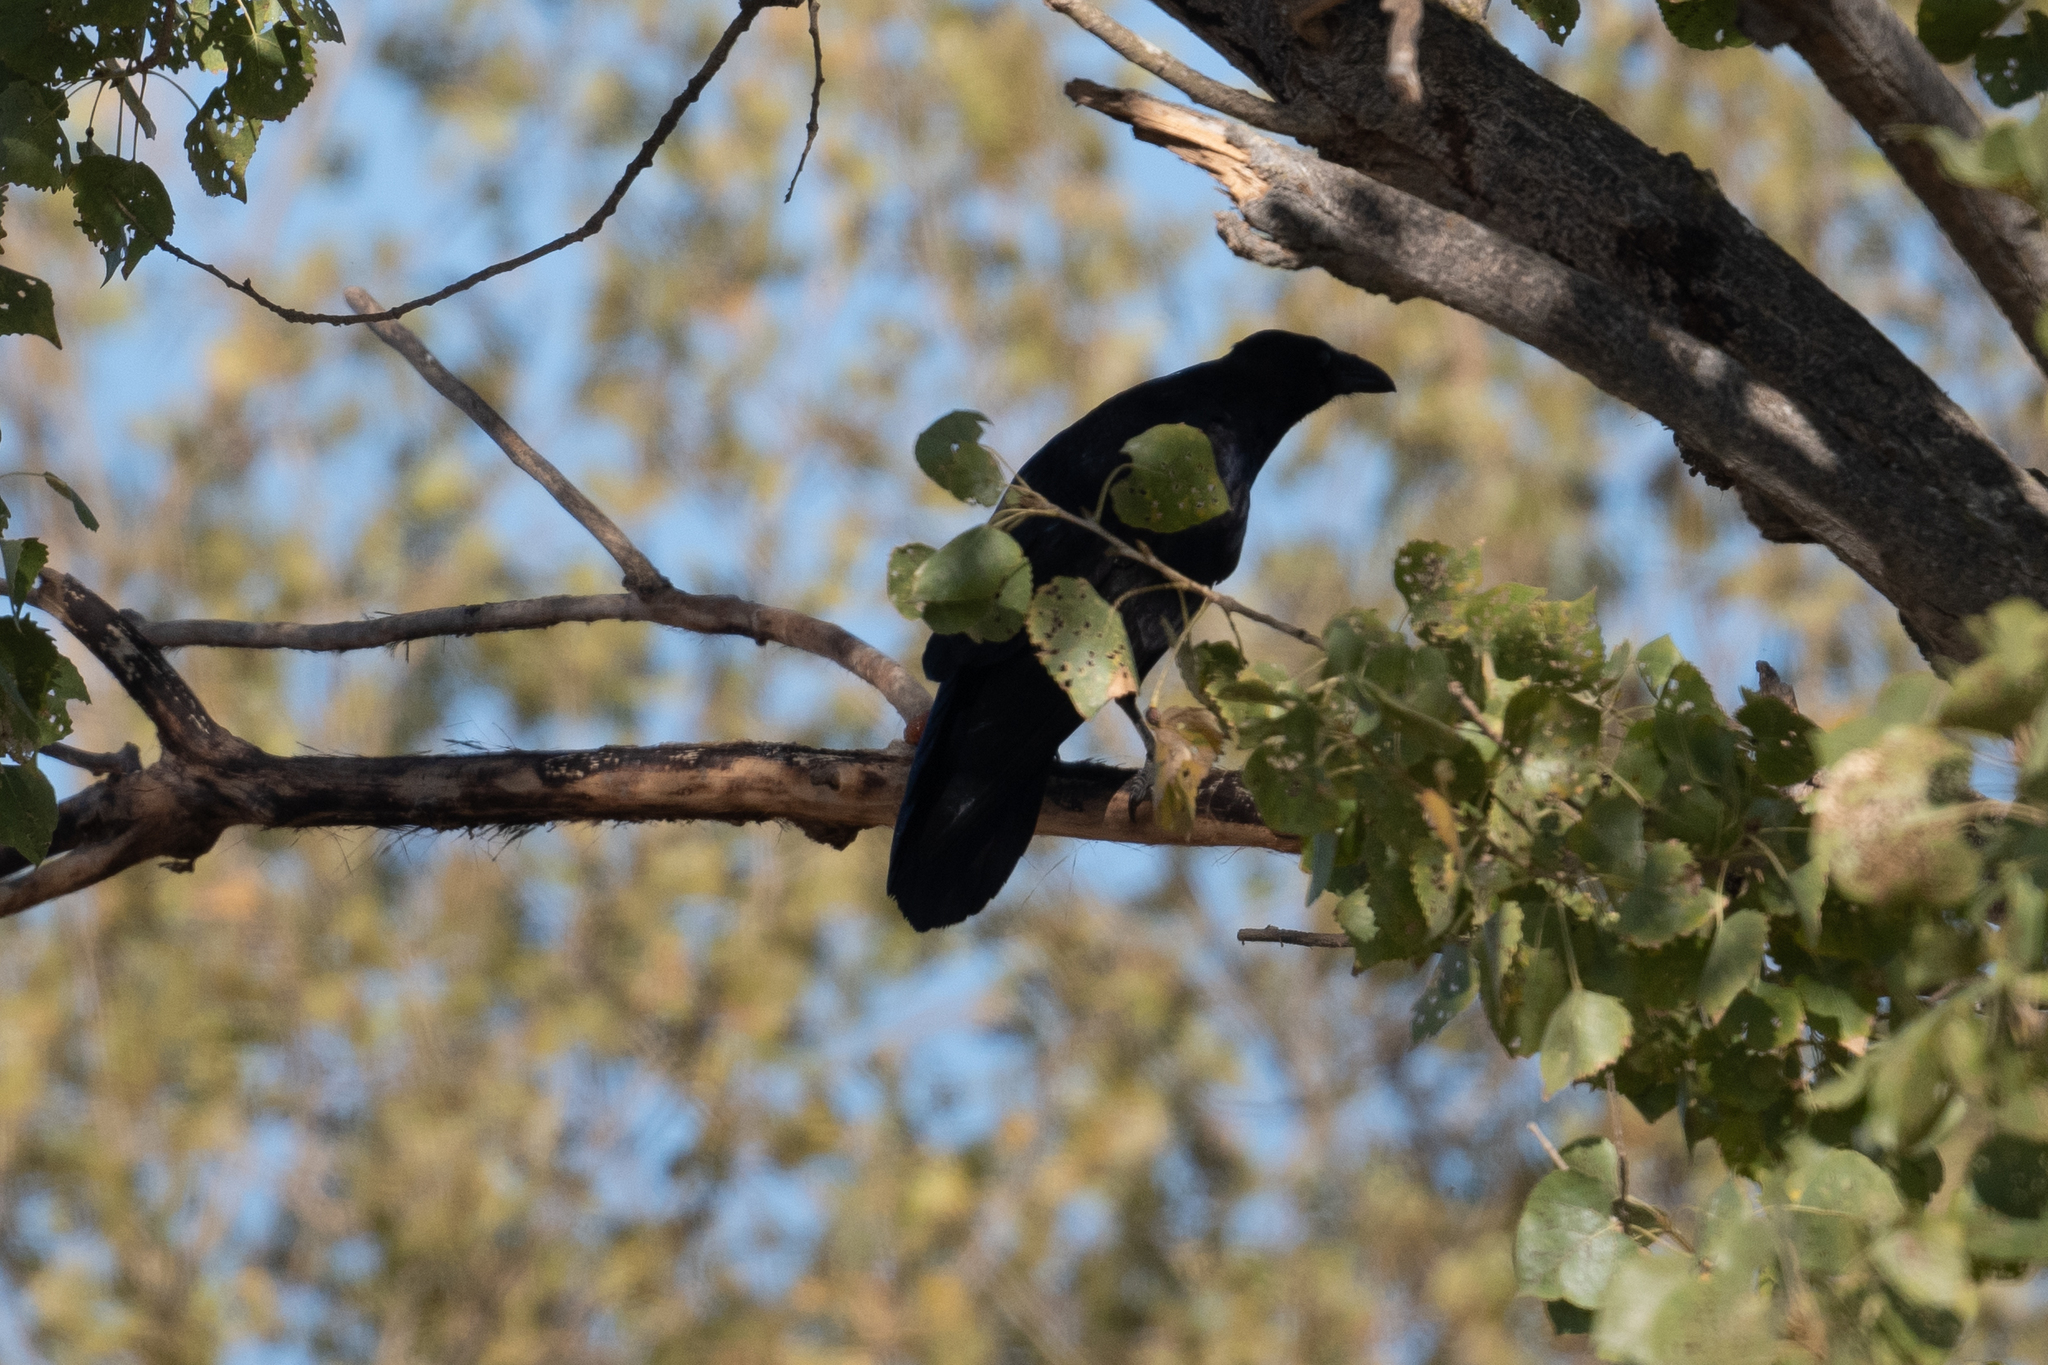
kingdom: Animalia
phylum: Chordata
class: Aves
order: Passeriformes
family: Corvidae
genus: Corvus
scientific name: Corvus corax
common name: Common raven
